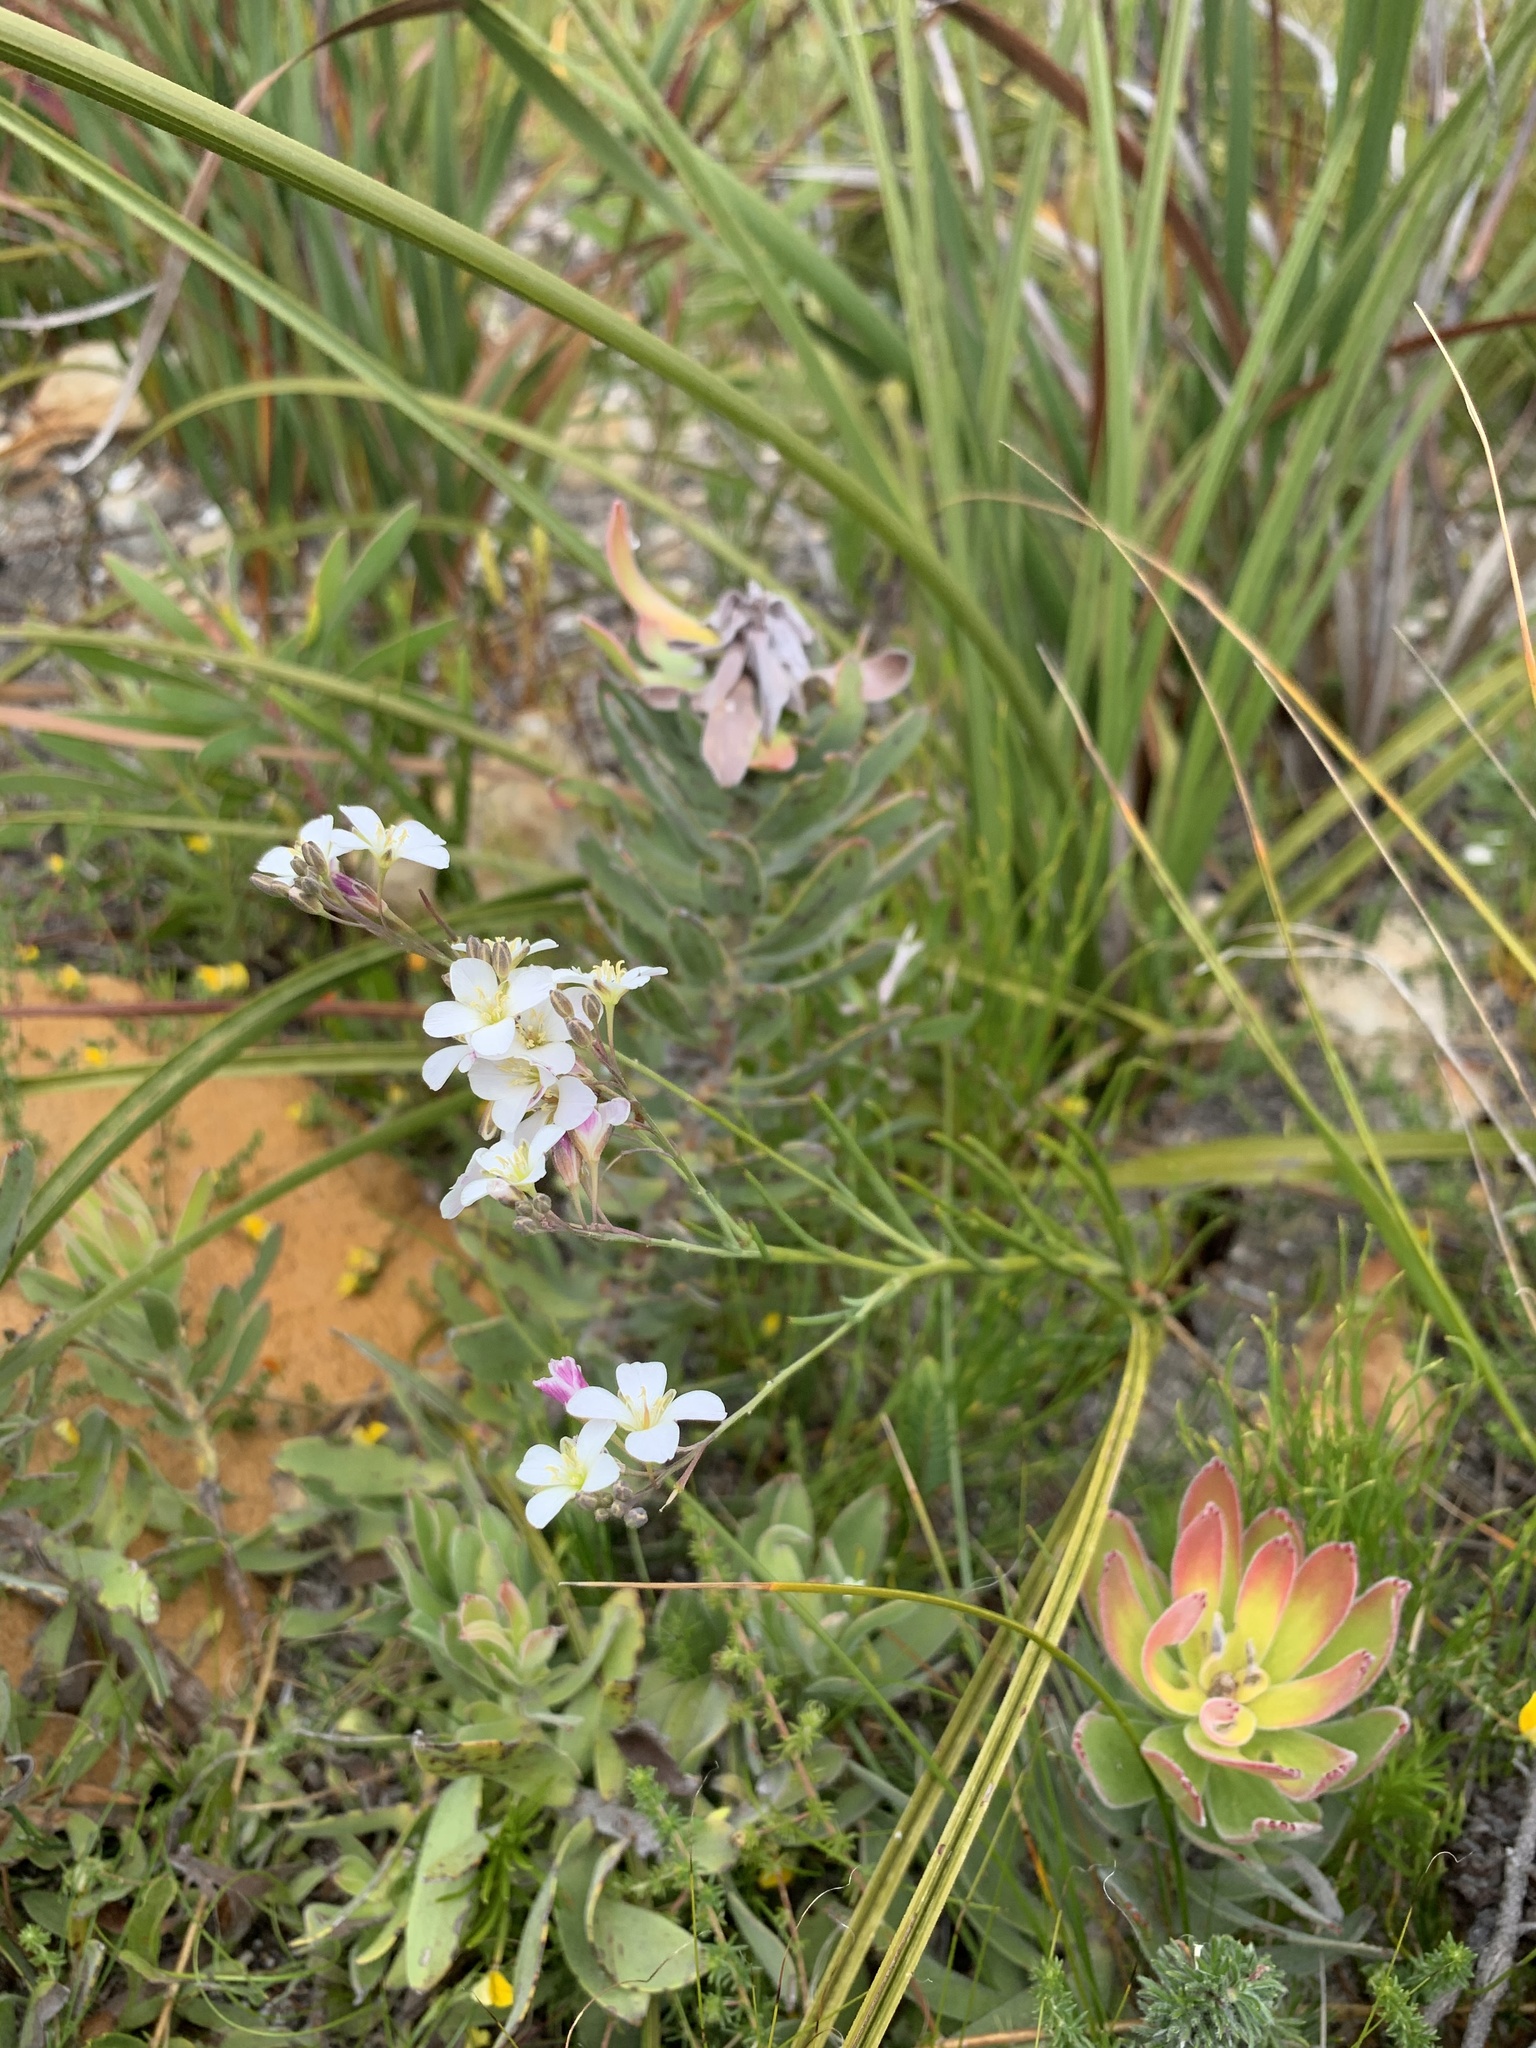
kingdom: Plantae
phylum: Tracheophyta
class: Magnoliopsida
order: Brassicales
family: Brassicaceae
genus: Heliophila
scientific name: Heliophila macra
